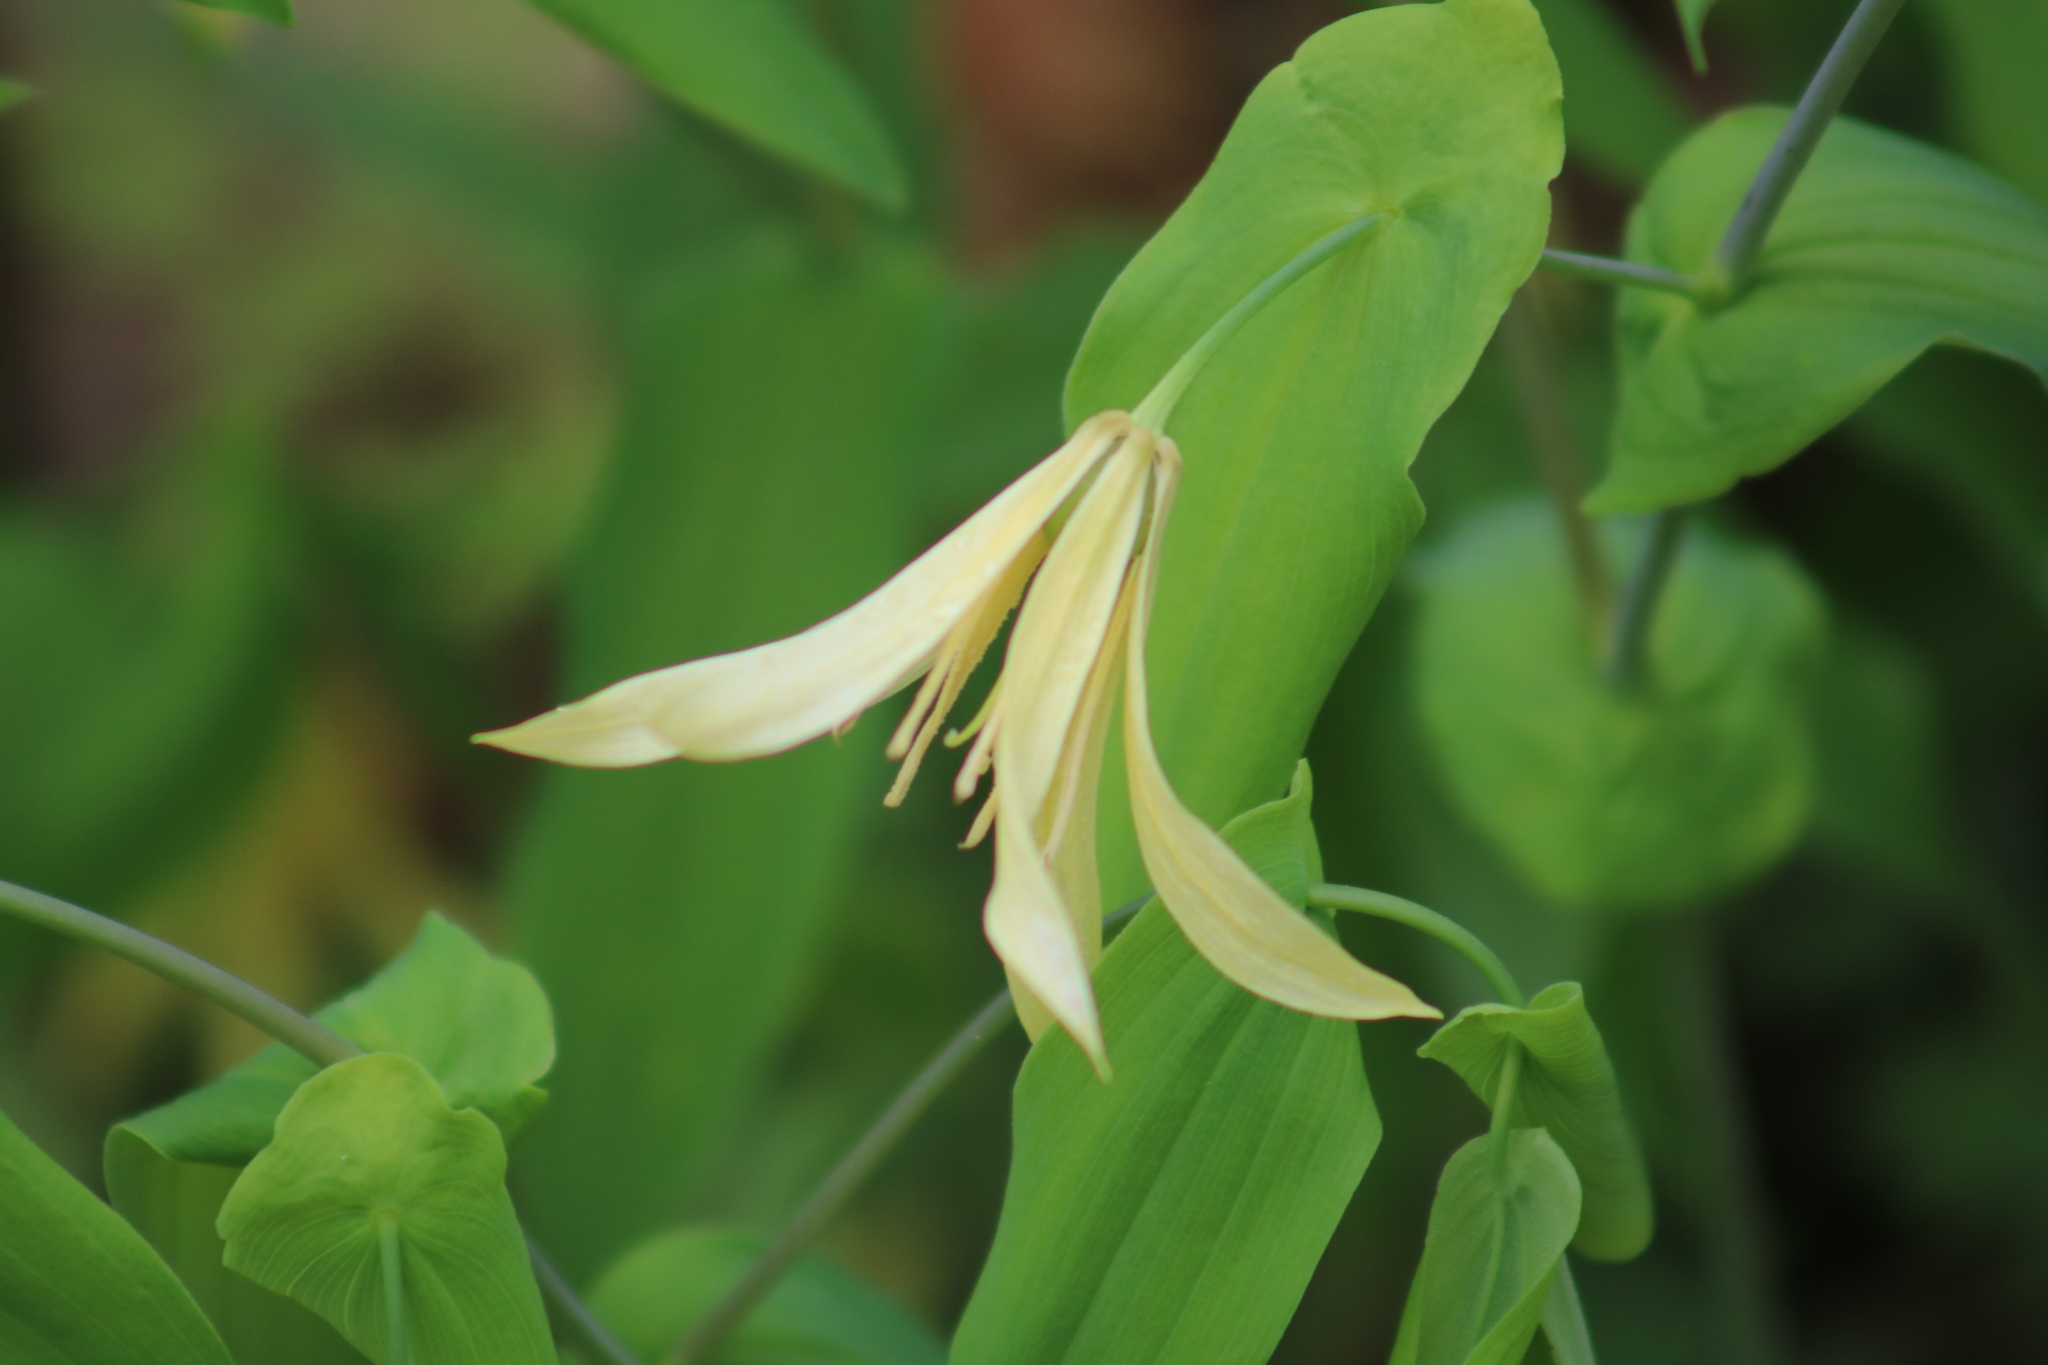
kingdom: Plantae
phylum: Tracheophyta
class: Liliopsida
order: Liliales
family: Colchicaceae
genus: Uvularia
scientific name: Uvularia grandiflora
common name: Bellwort
